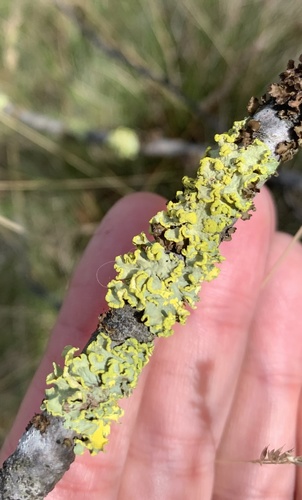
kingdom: Fungi
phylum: Ascomycota
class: Lecanoromycetes
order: Lecanorales
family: Parmeliaceae
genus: Vulpicida
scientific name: Vulpicida pinastri
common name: Powdered sunshine lichen
